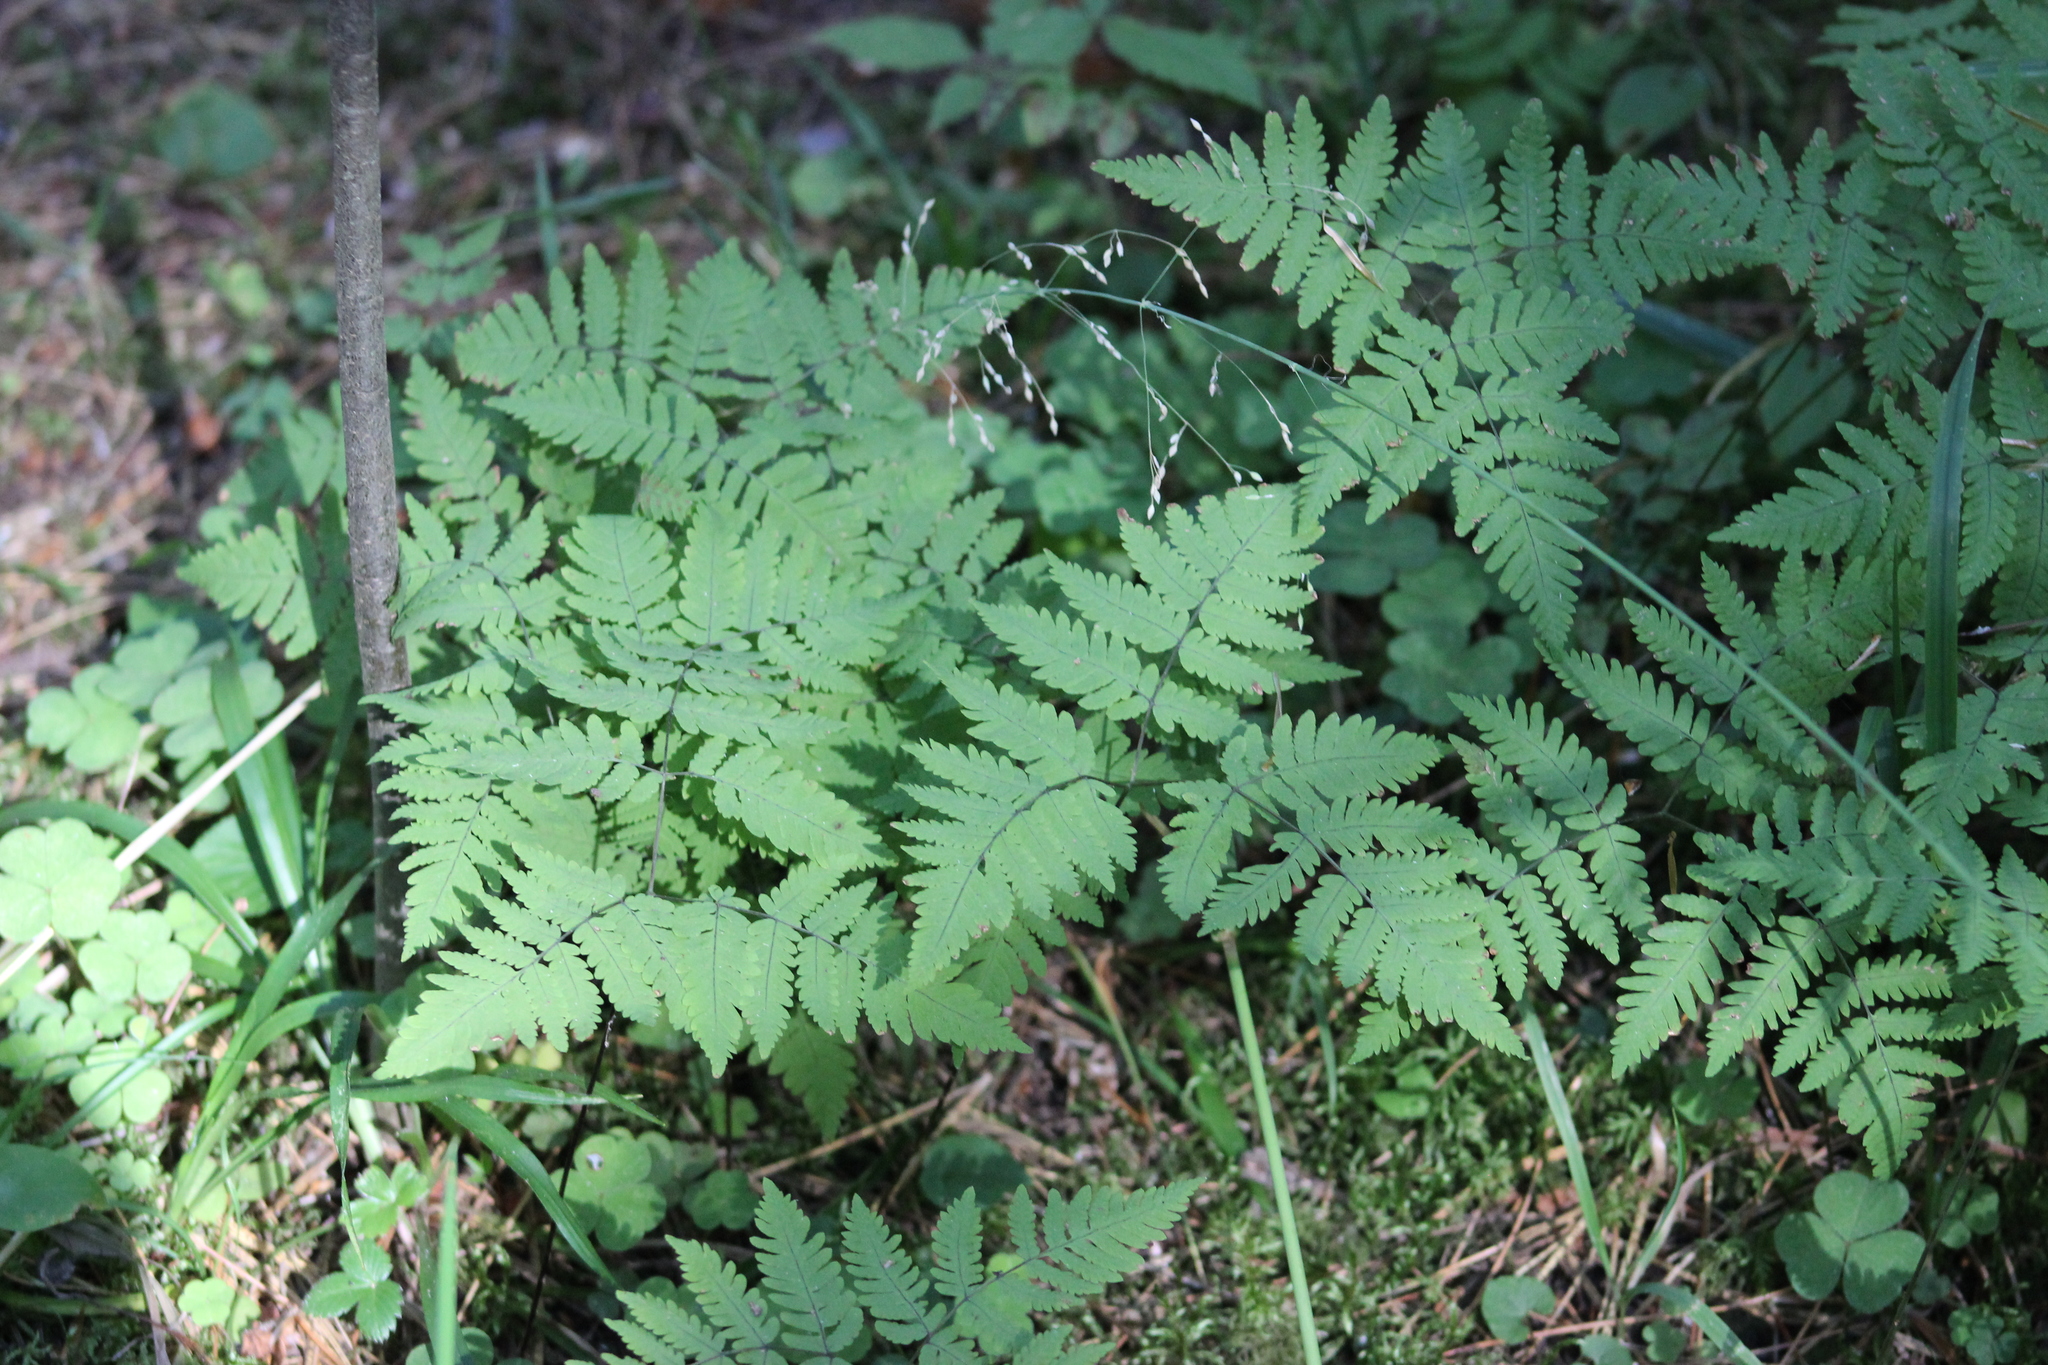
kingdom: Plantae
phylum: Tracheophyta
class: Polypodiopsida
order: Polypodiales
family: Cystopteridaceae
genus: Gymnocarpium
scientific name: Gymnocarpium dryopteris
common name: Oak fern
